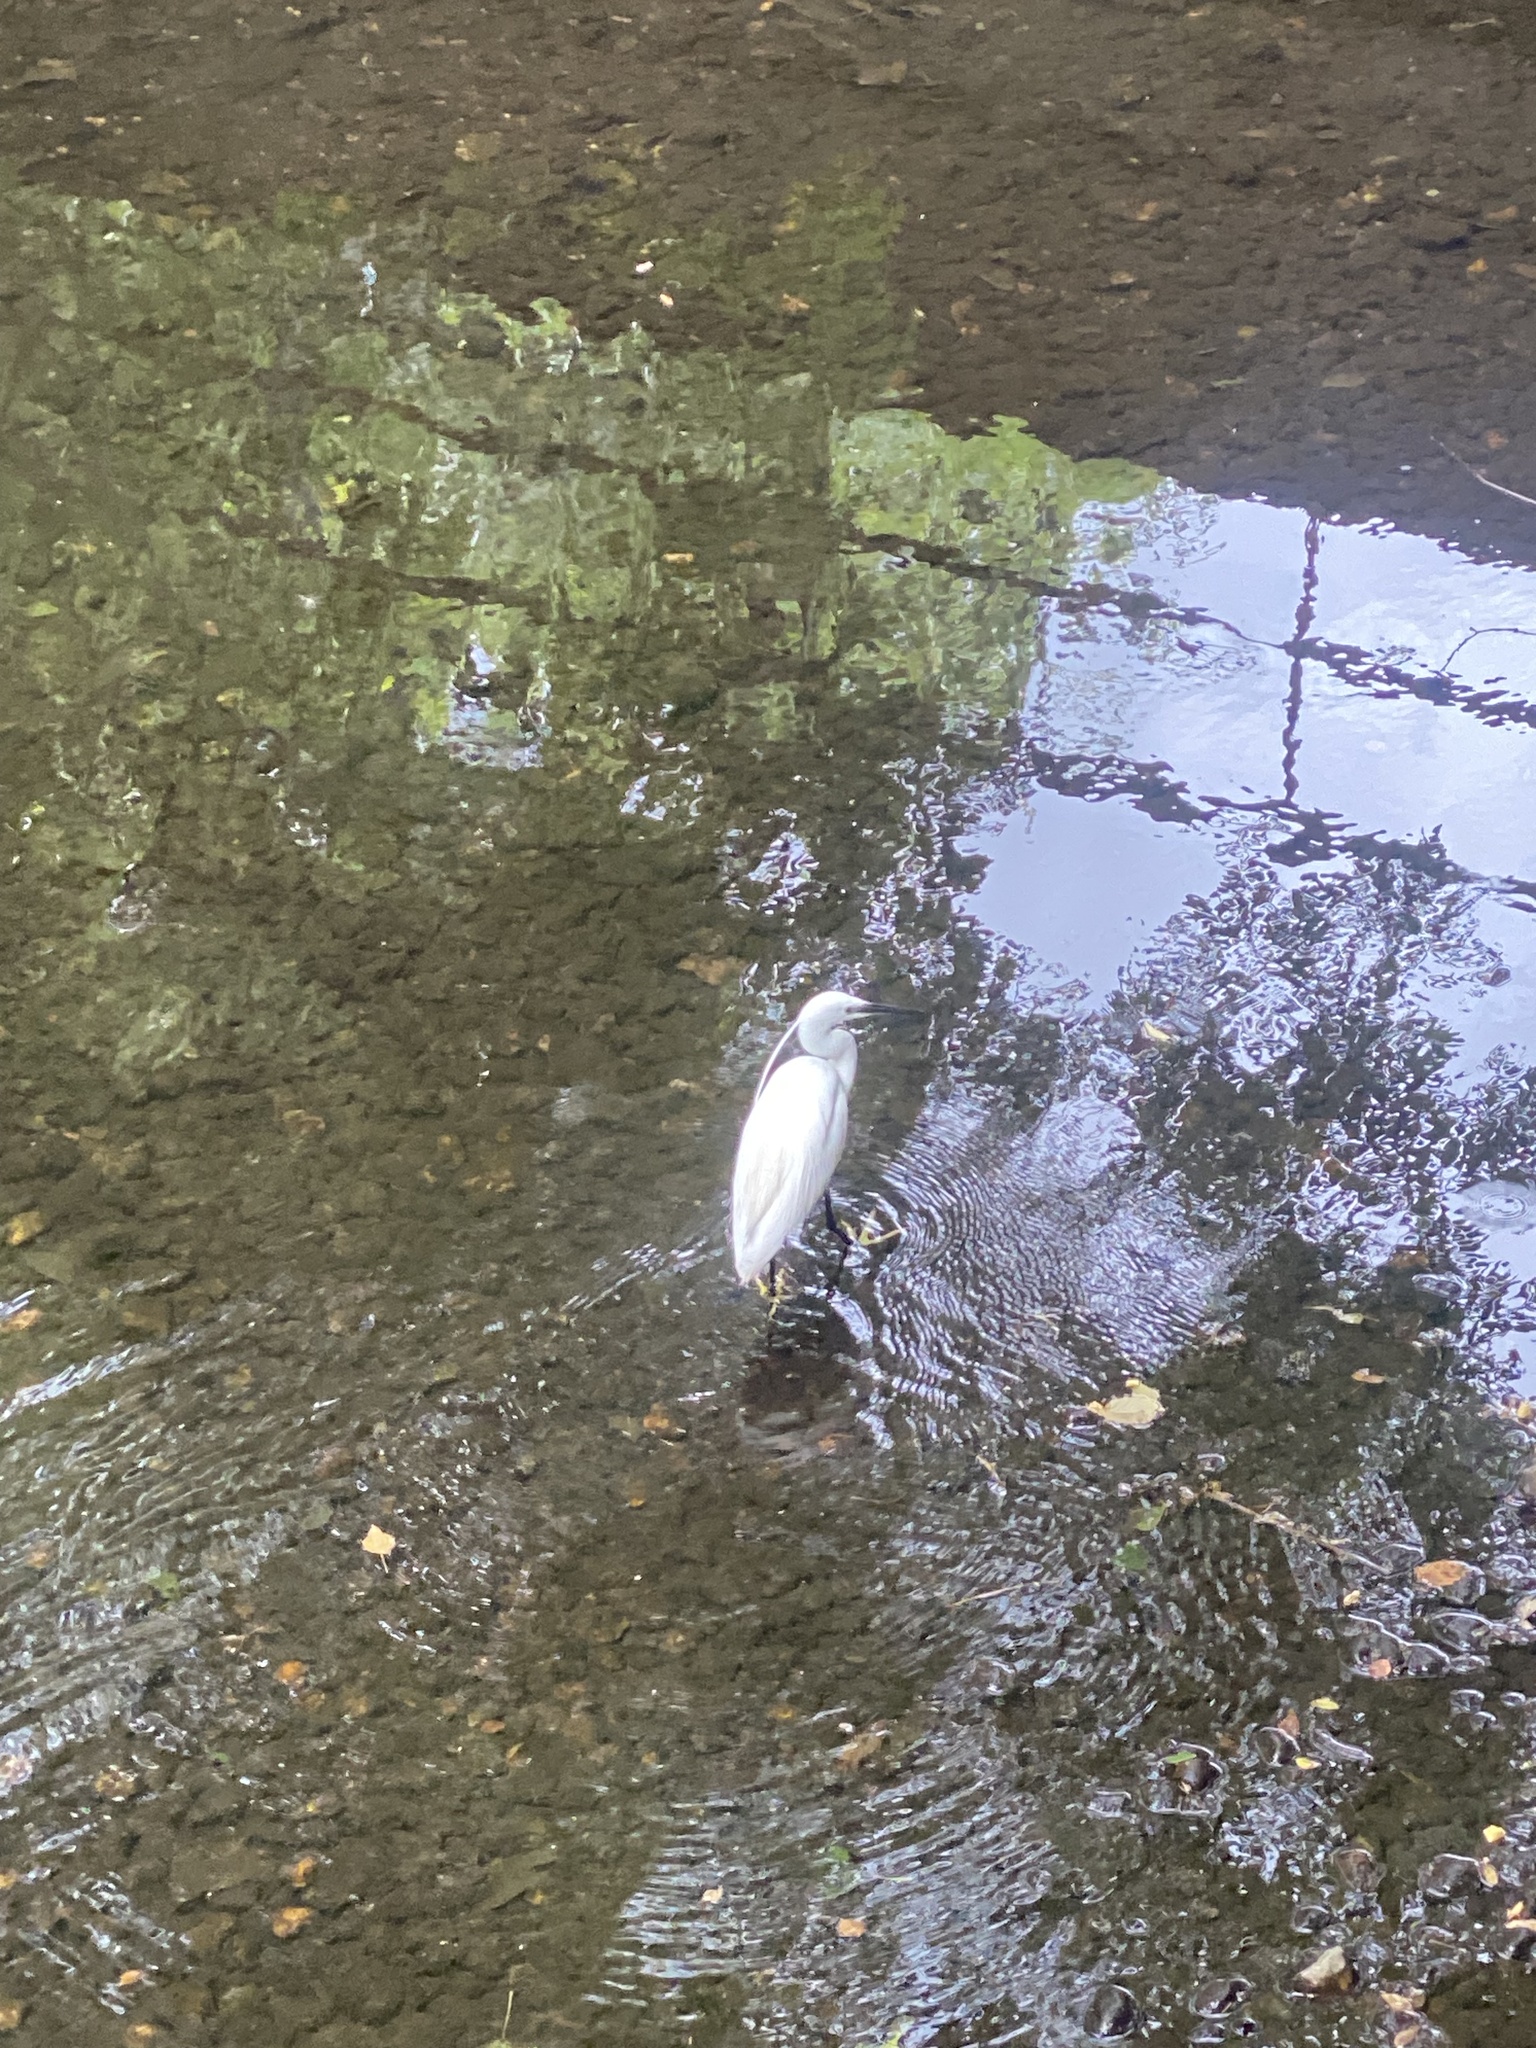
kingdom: Animalia
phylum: Chordata
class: Aves
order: Pelecaniformes
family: Ardeidae
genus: Egretta
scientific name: Egretta garzetta
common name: Little egret
